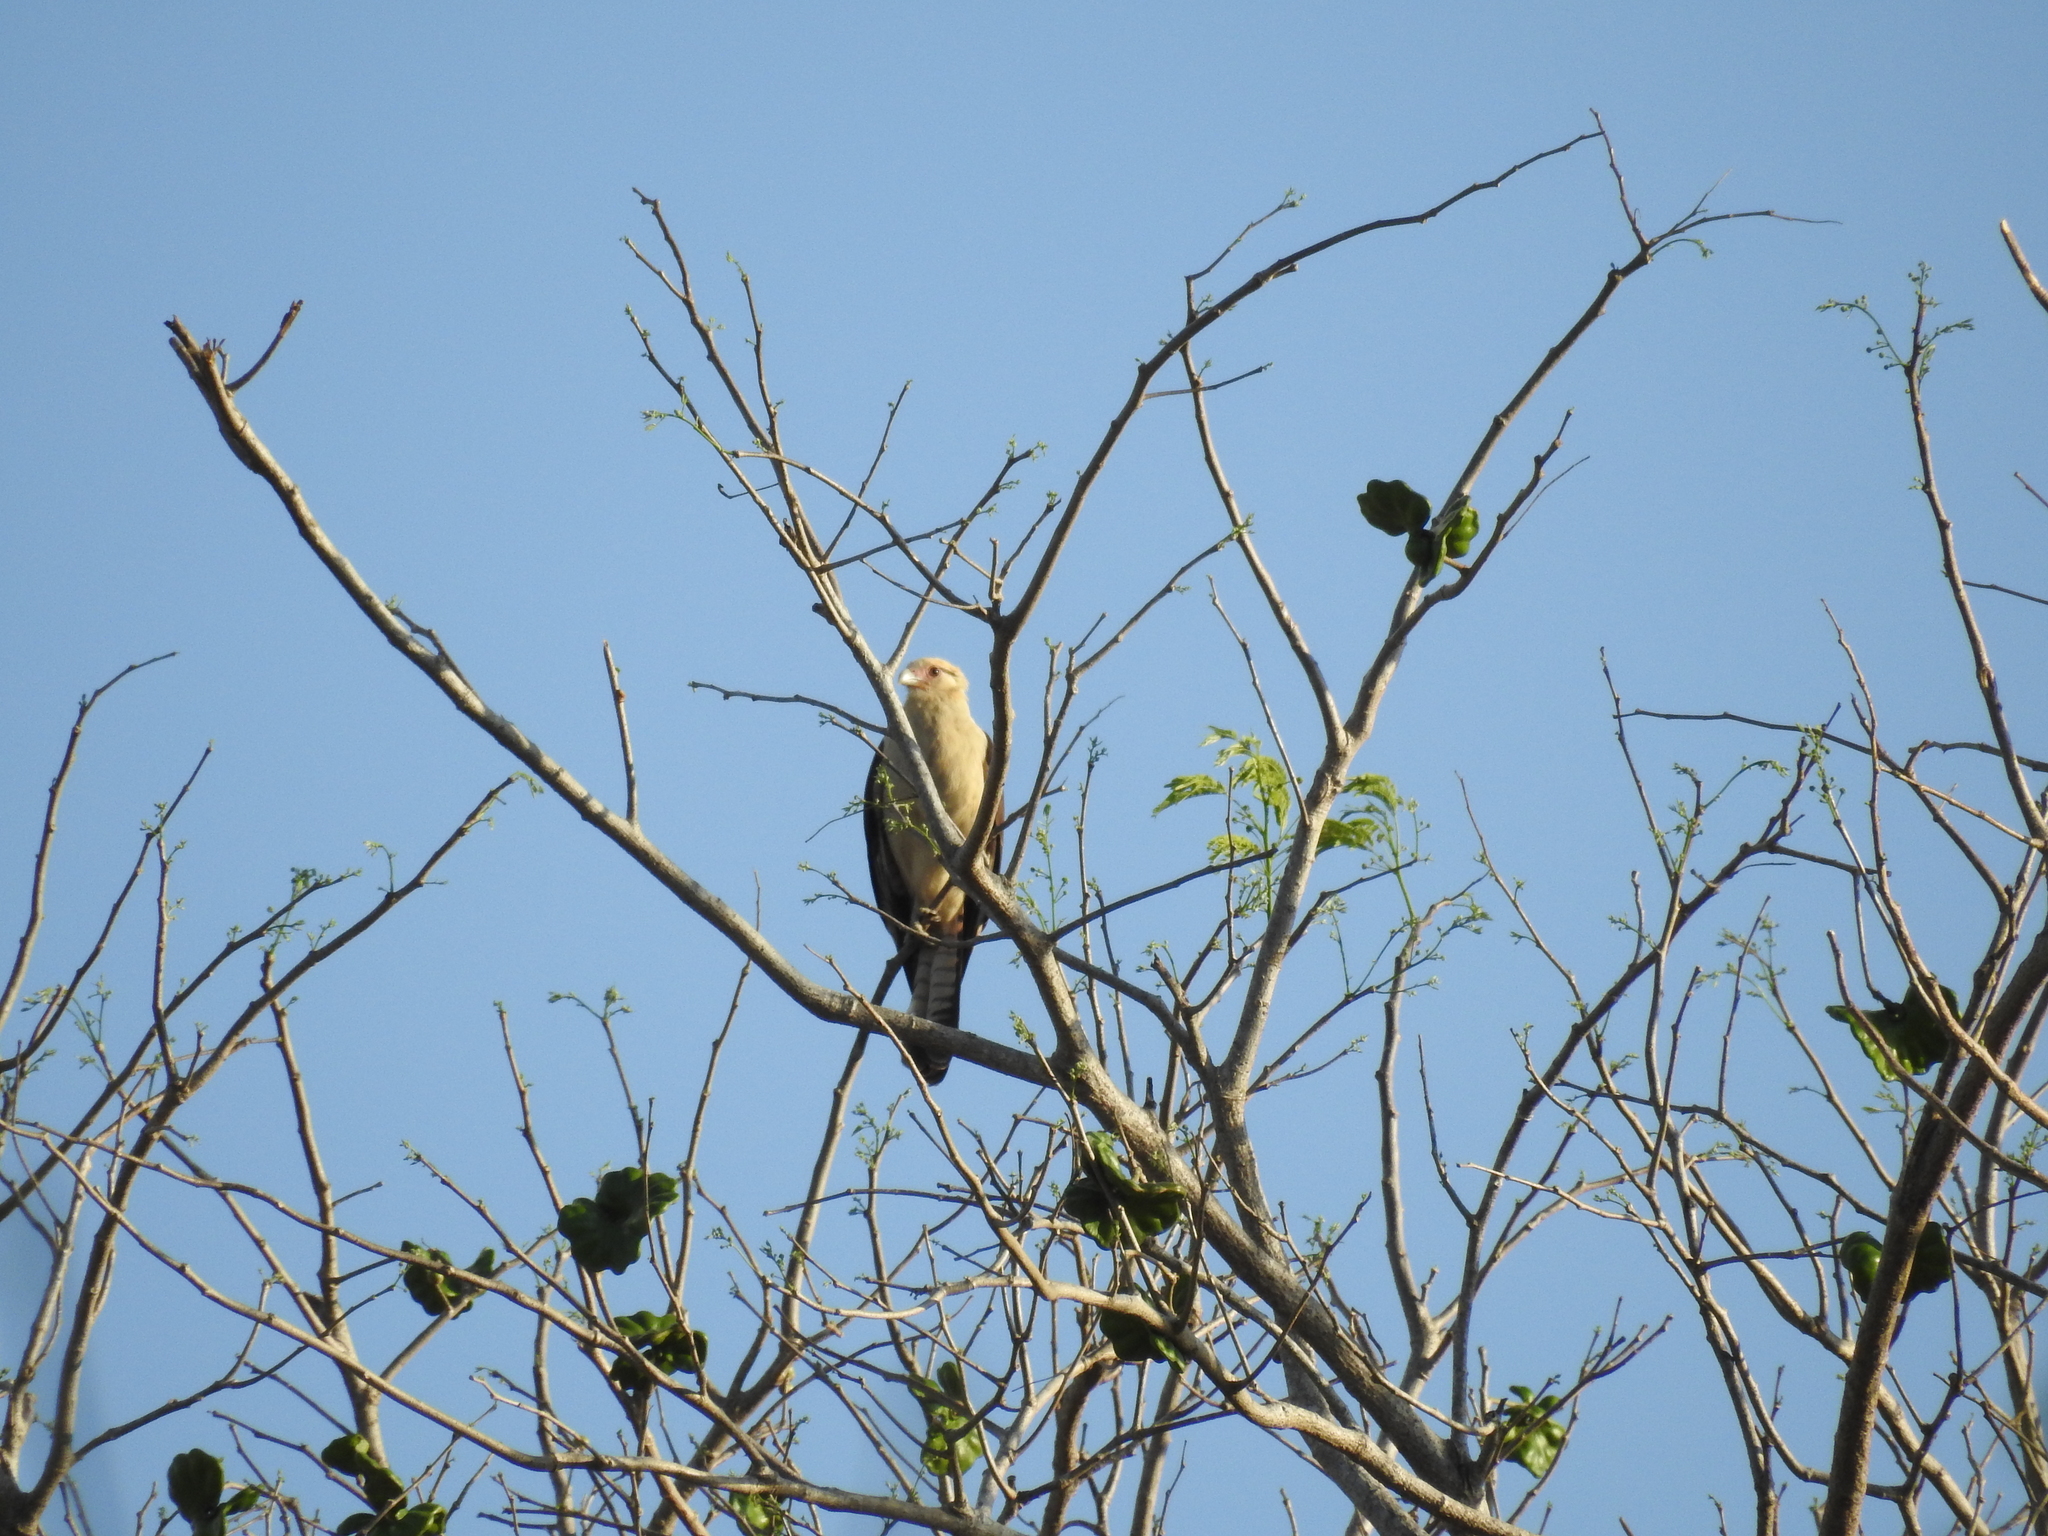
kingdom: Animalia
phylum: Chordata
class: Aves
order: Falconiformes
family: Falconidae
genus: Daptrius
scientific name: Daptrius
